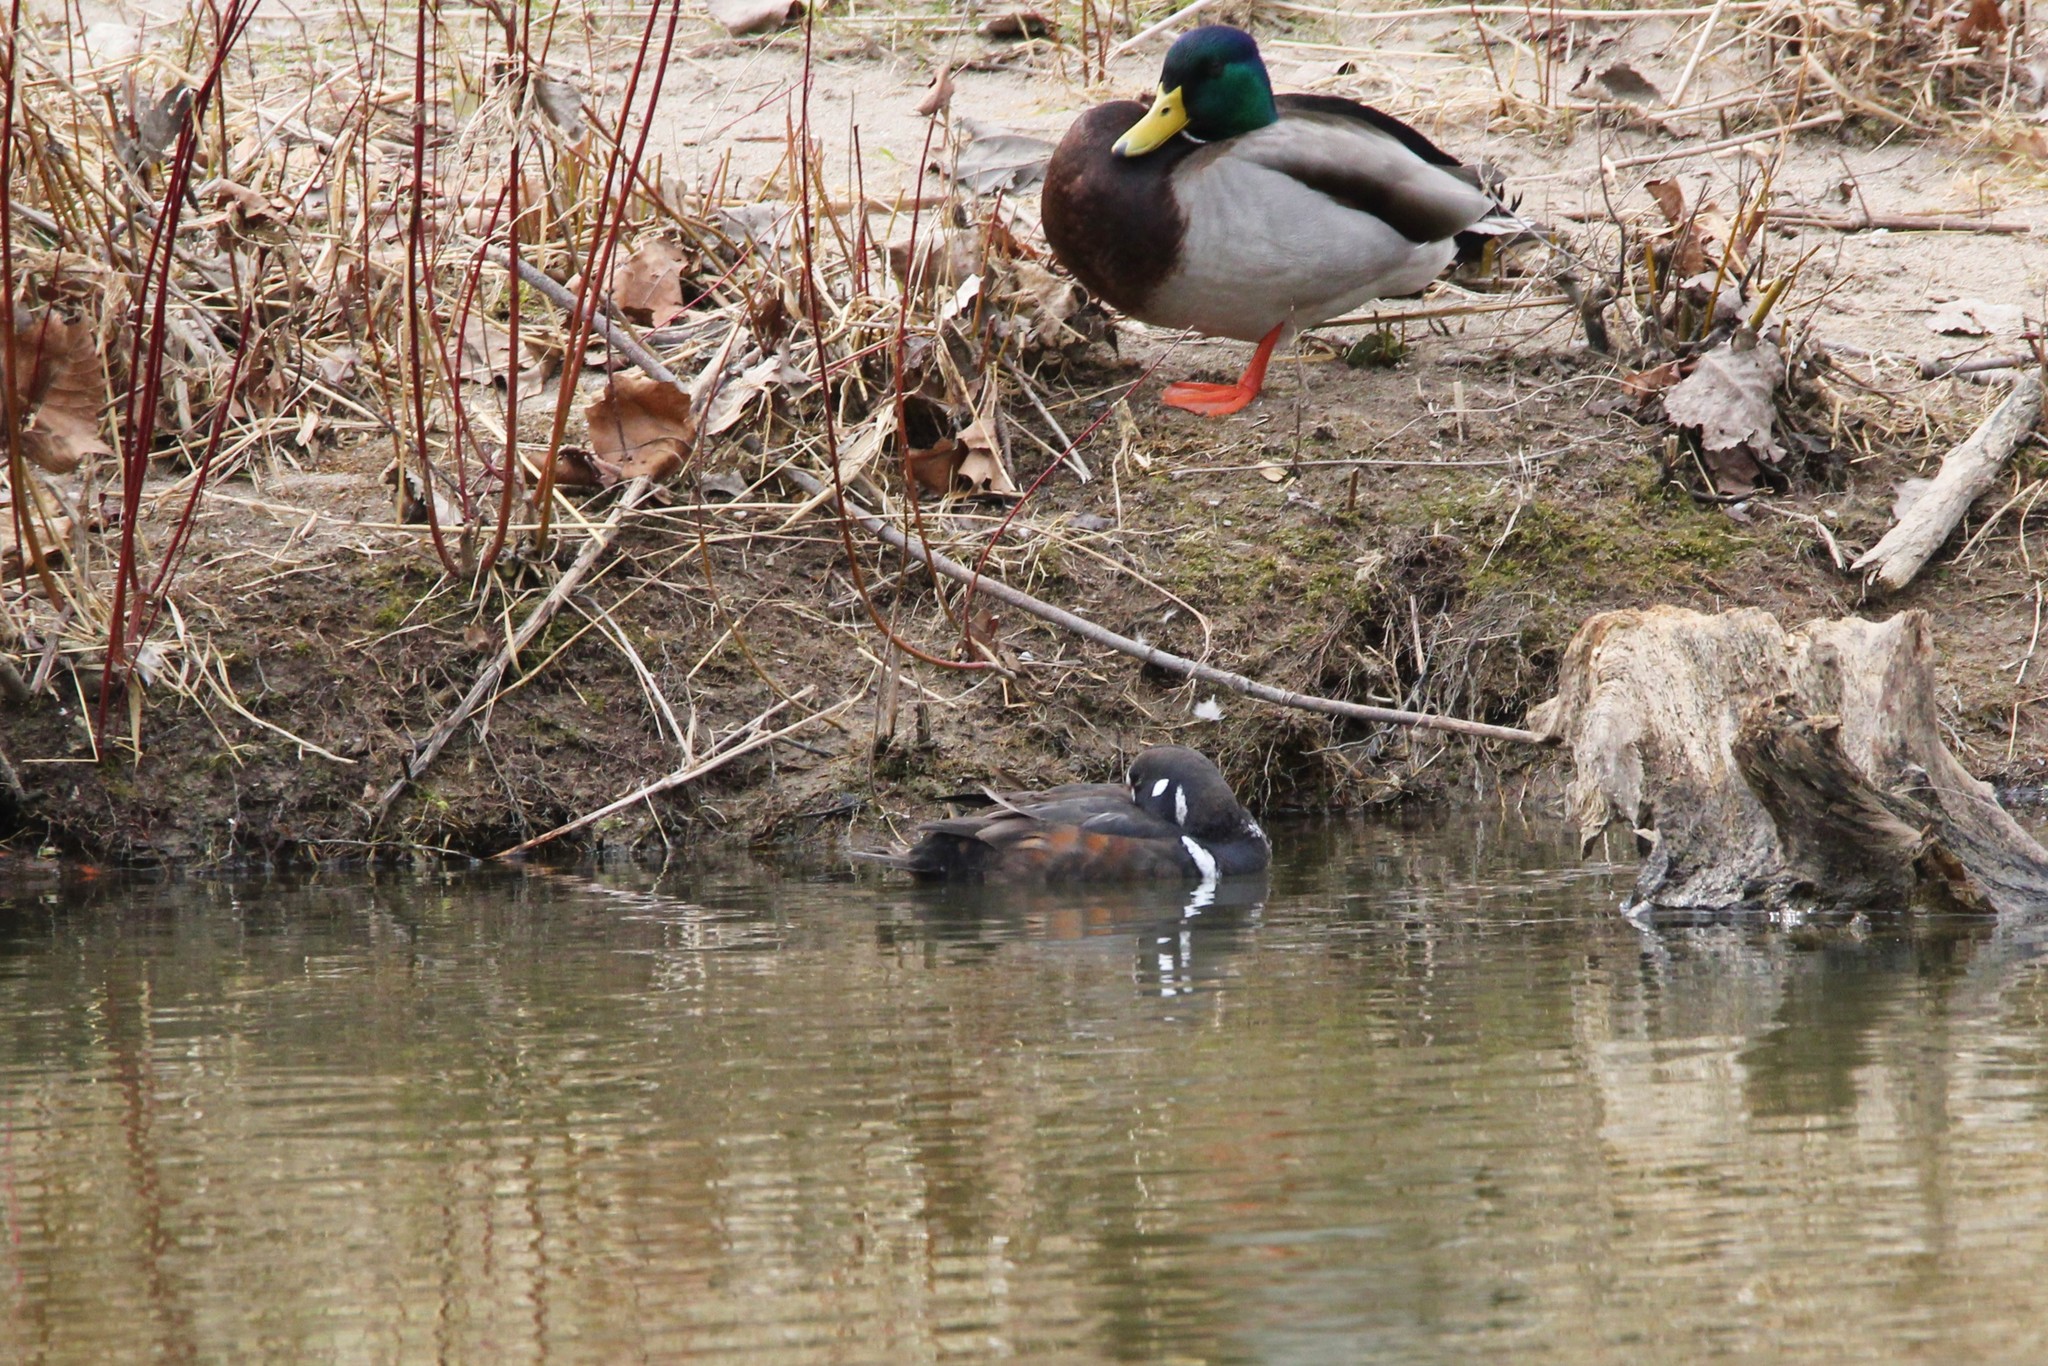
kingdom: Animalia
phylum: Chordata
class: Aves
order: Anseriformes
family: Anatidae
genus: Histrionicus
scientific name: Histrionicus histrionicus
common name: Harlequin duck
